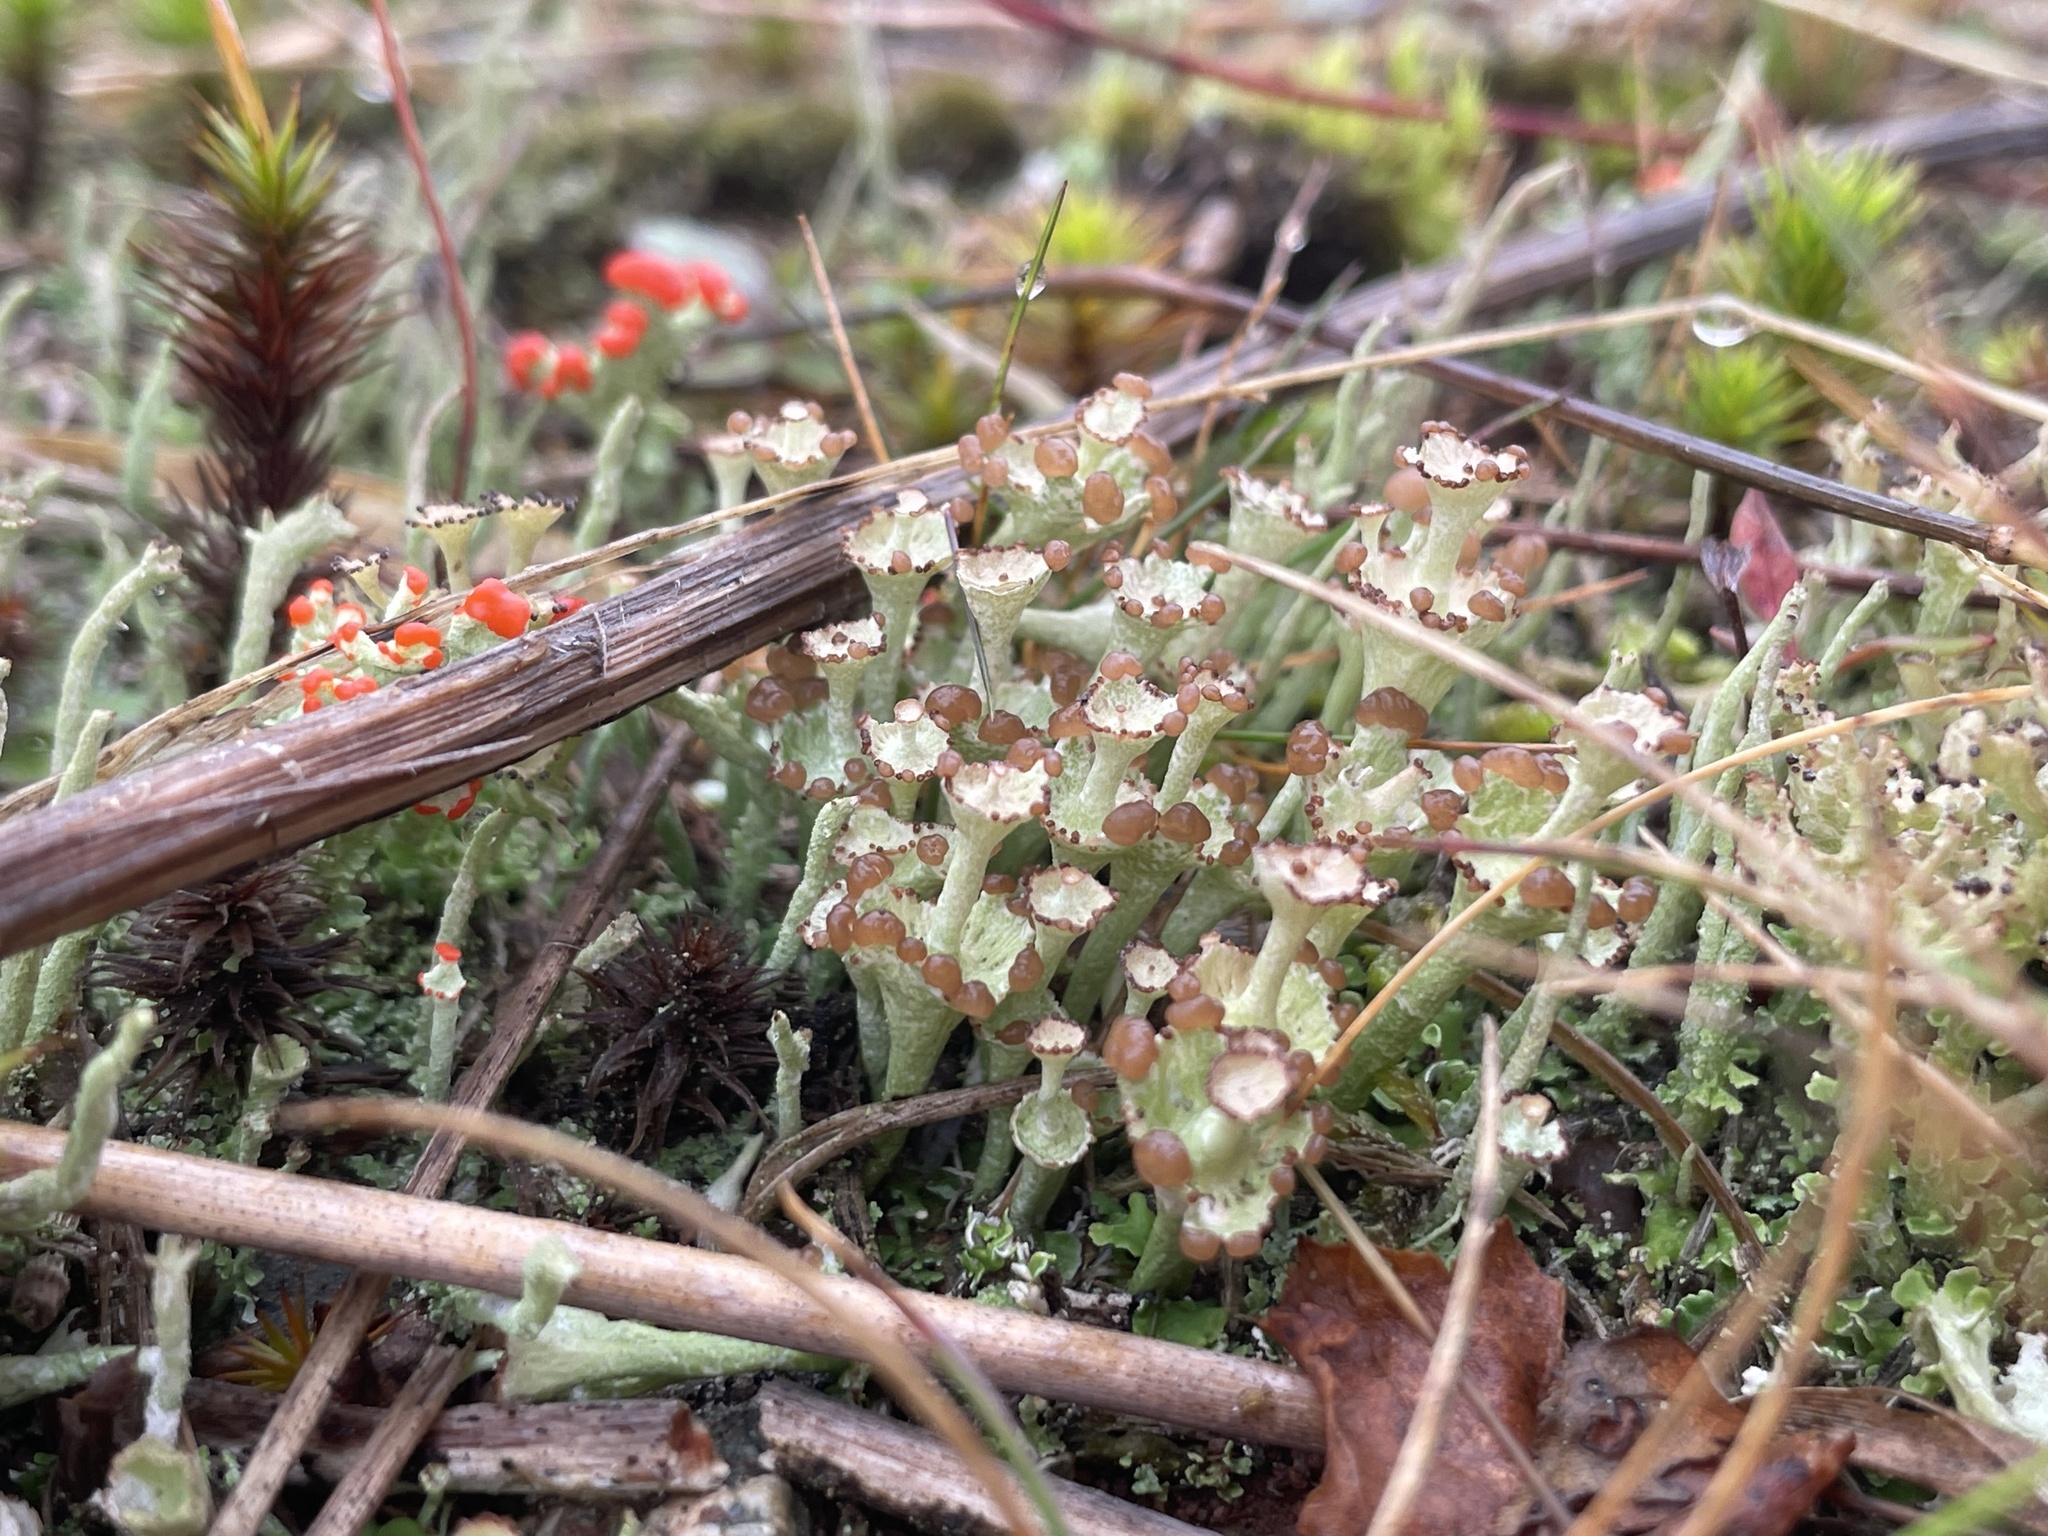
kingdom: Fungi
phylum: Ascomycota
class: Lecanoromycetes
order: Lecanorales
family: Cladoniaceae
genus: Cladonia
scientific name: Cladonia cervicornis
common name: Browned pixie-cup lichen
